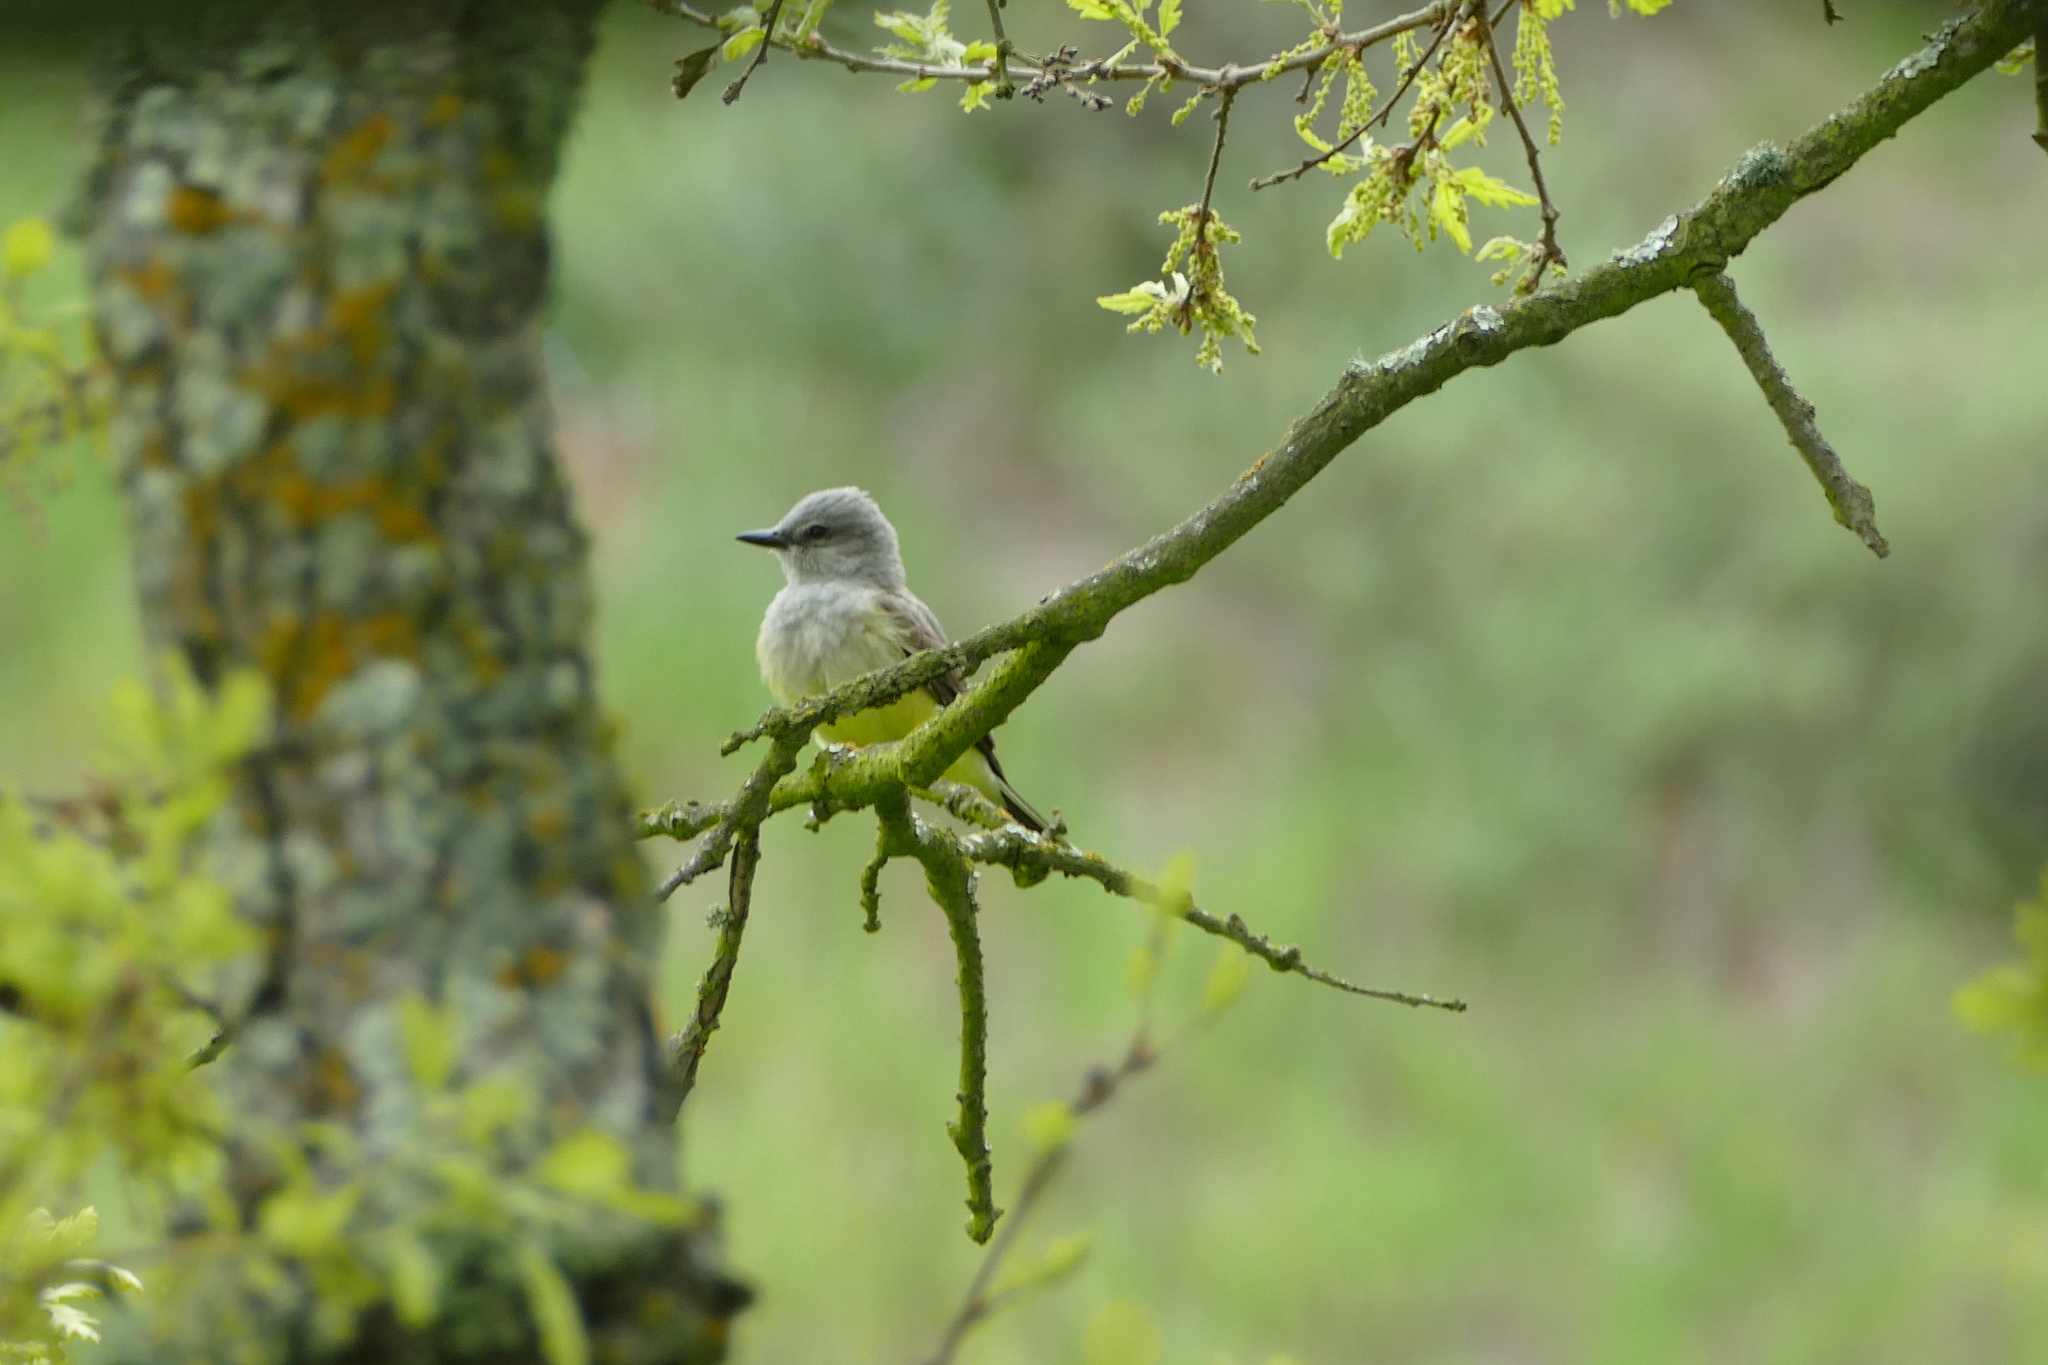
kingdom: Animalia
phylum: Chordata
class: Aves
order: Passeriformes
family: Tyrannidae
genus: Tyrannus
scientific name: Tyrannus verticalis
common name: Western kingbird
